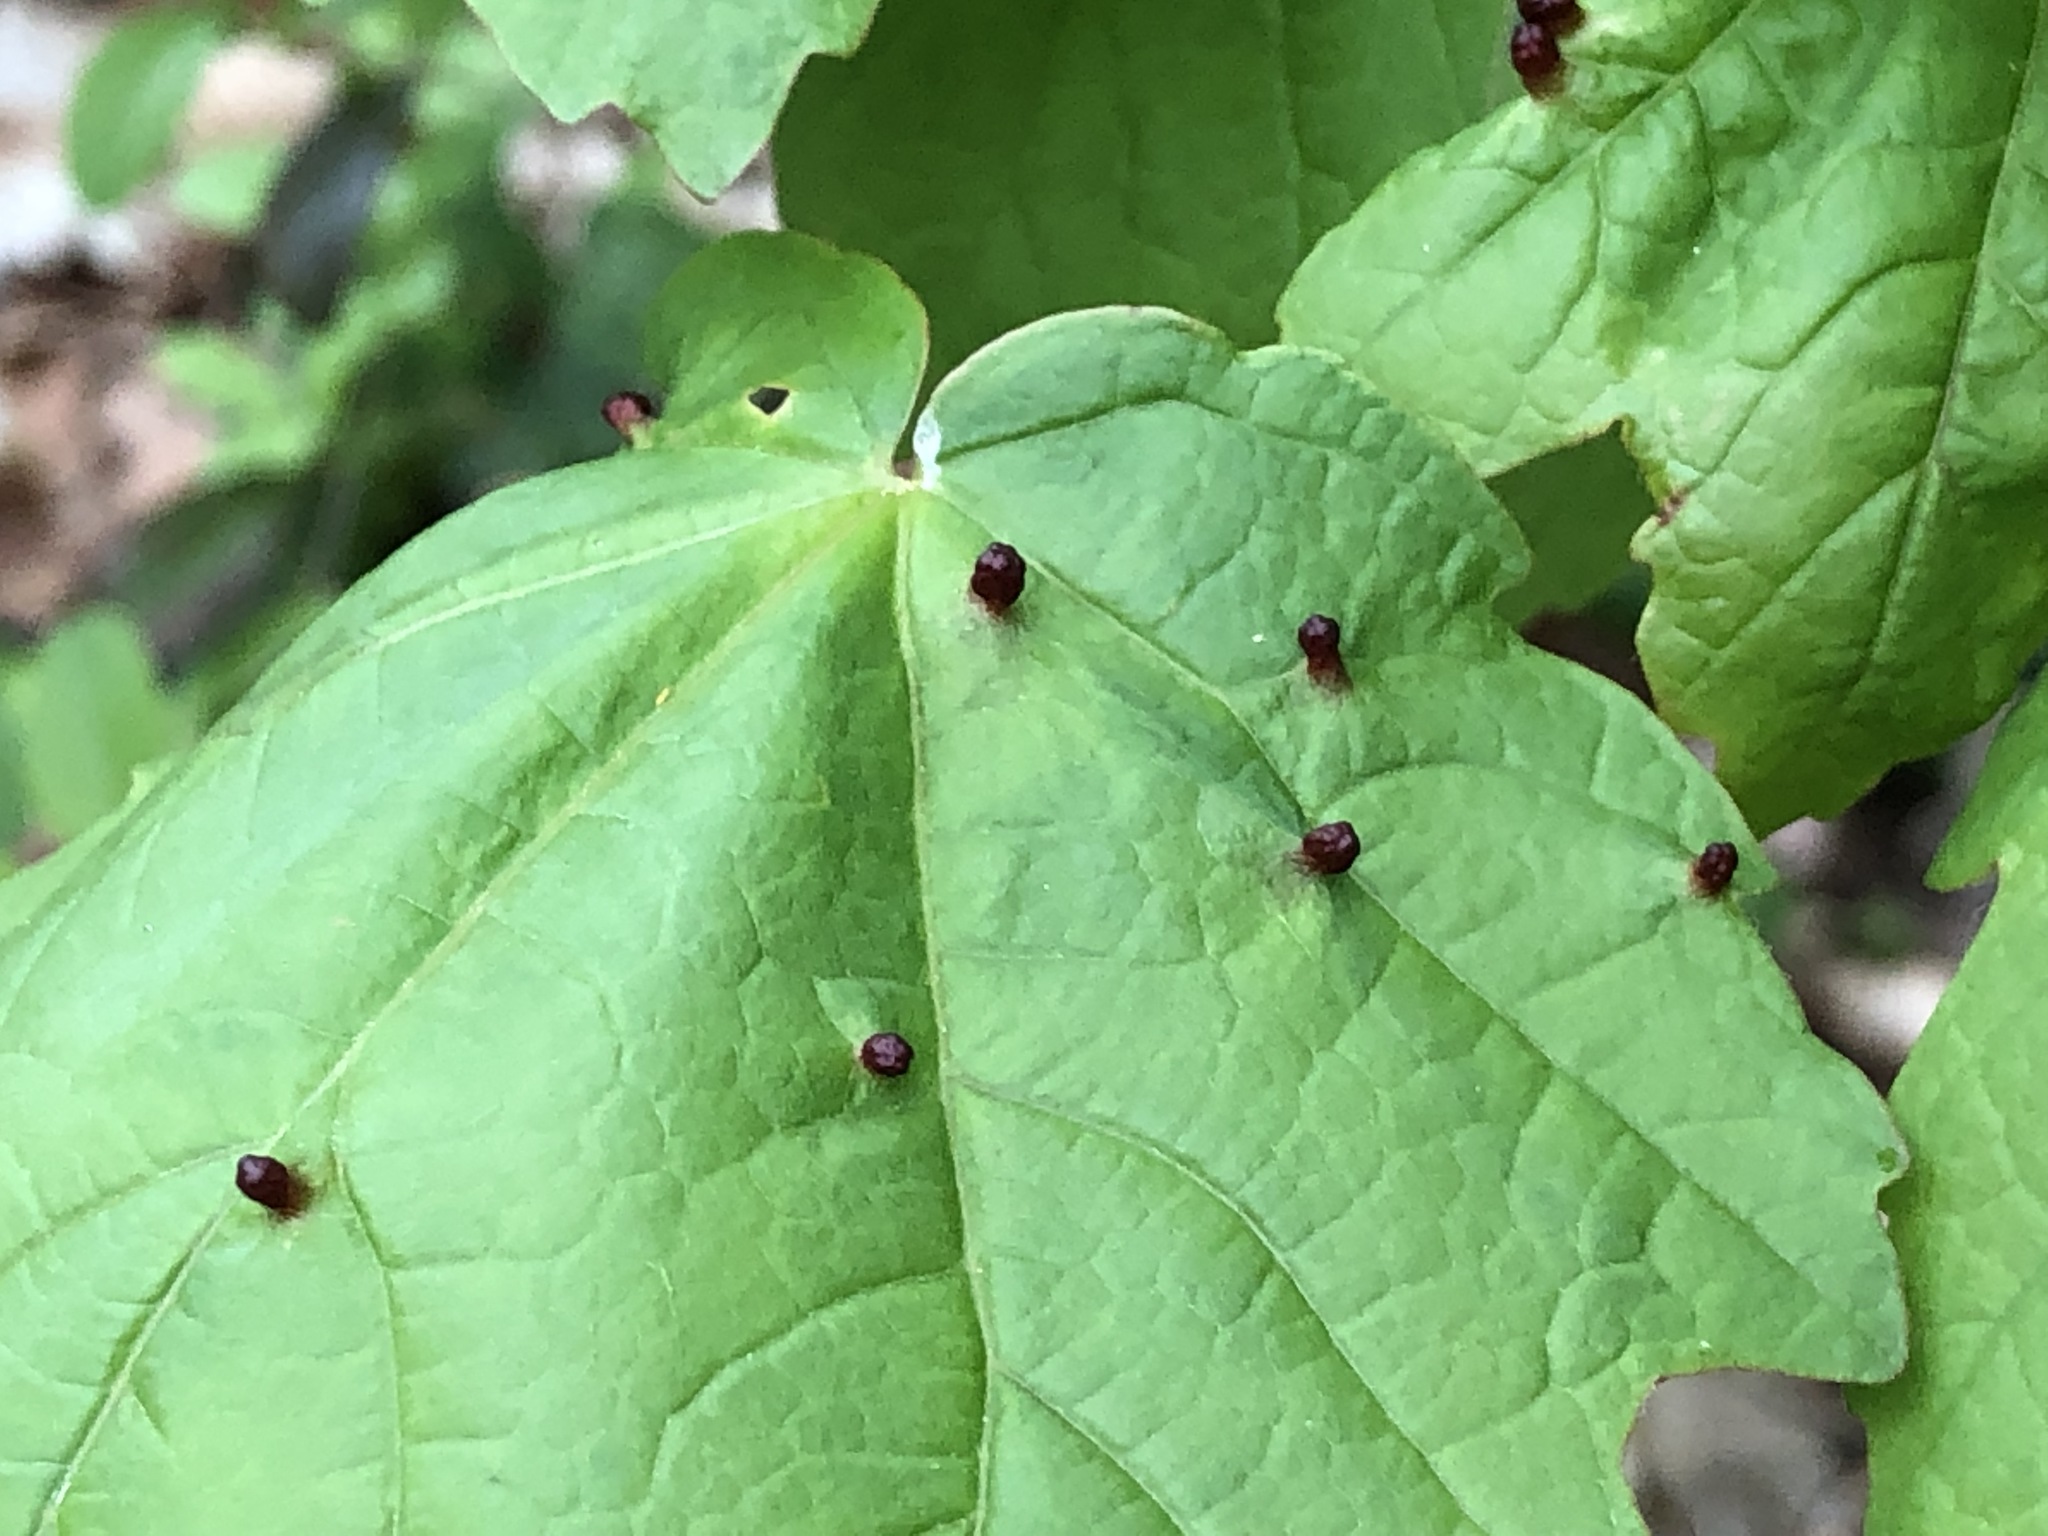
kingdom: Animalia
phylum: Arthropoda
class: Arachnida
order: Trombidiformes
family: Eriophyidae
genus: Aceria
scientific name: Aceria opulifolii
